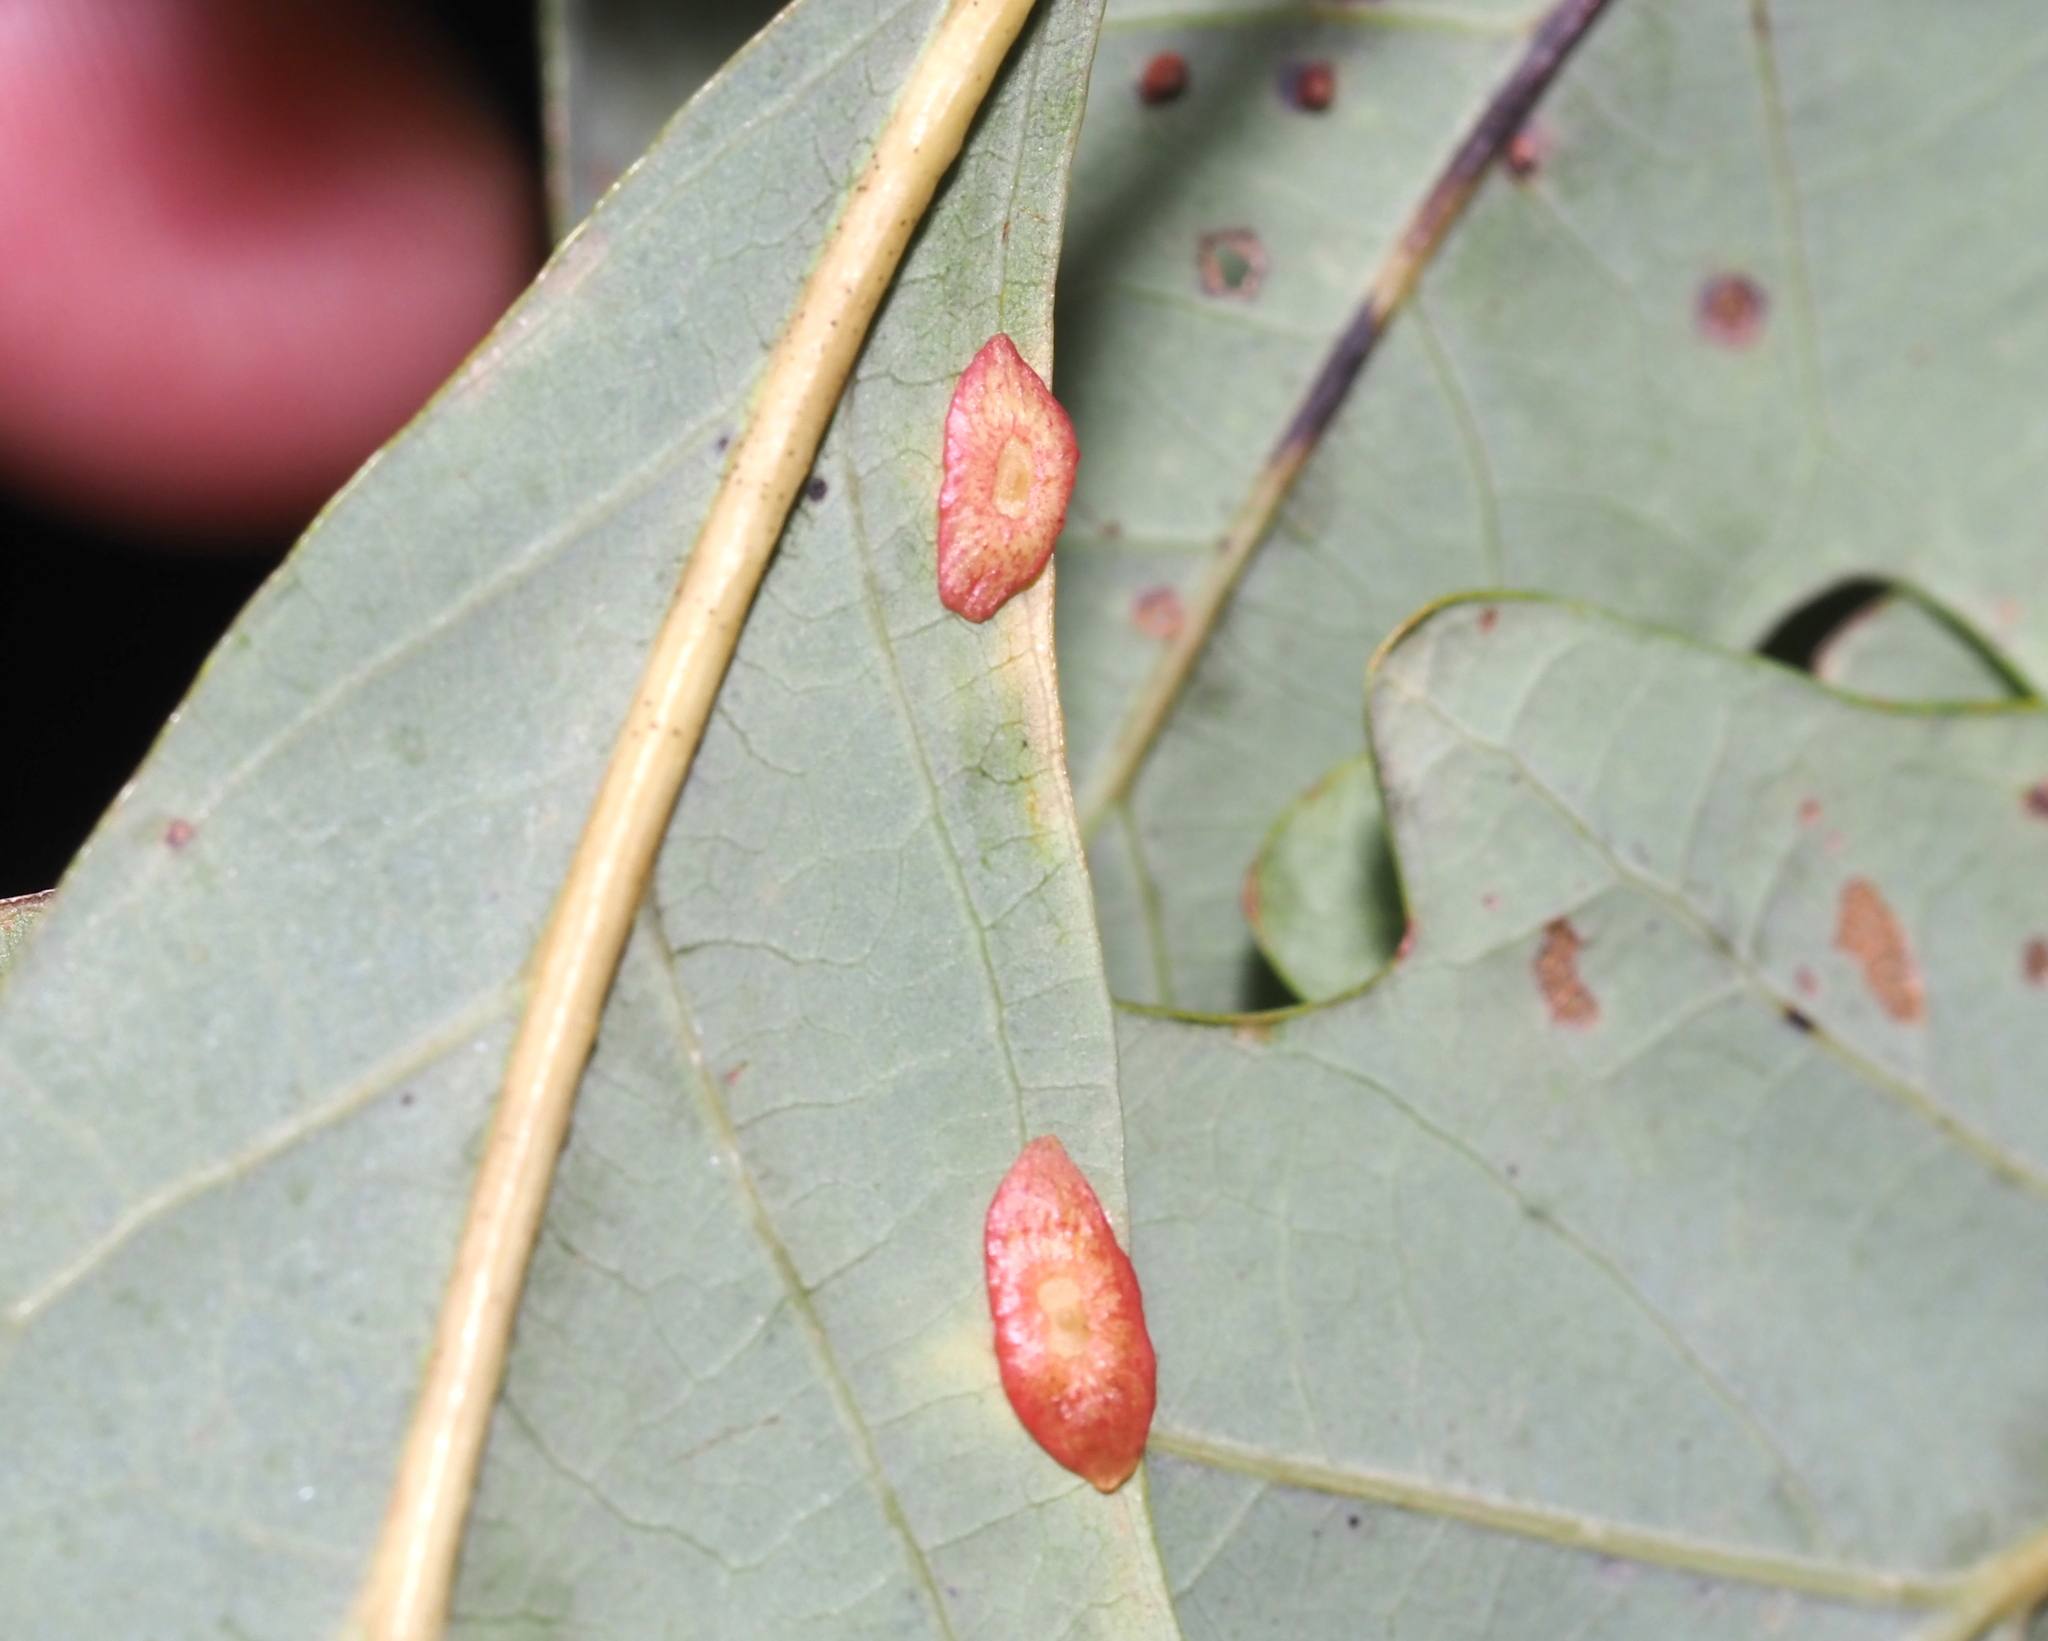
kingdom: Animalia
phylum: Arthropoda
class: Insecta
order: Hymenoptera
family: Cynipidae
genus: Phylloteras
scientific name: Phylloteras
